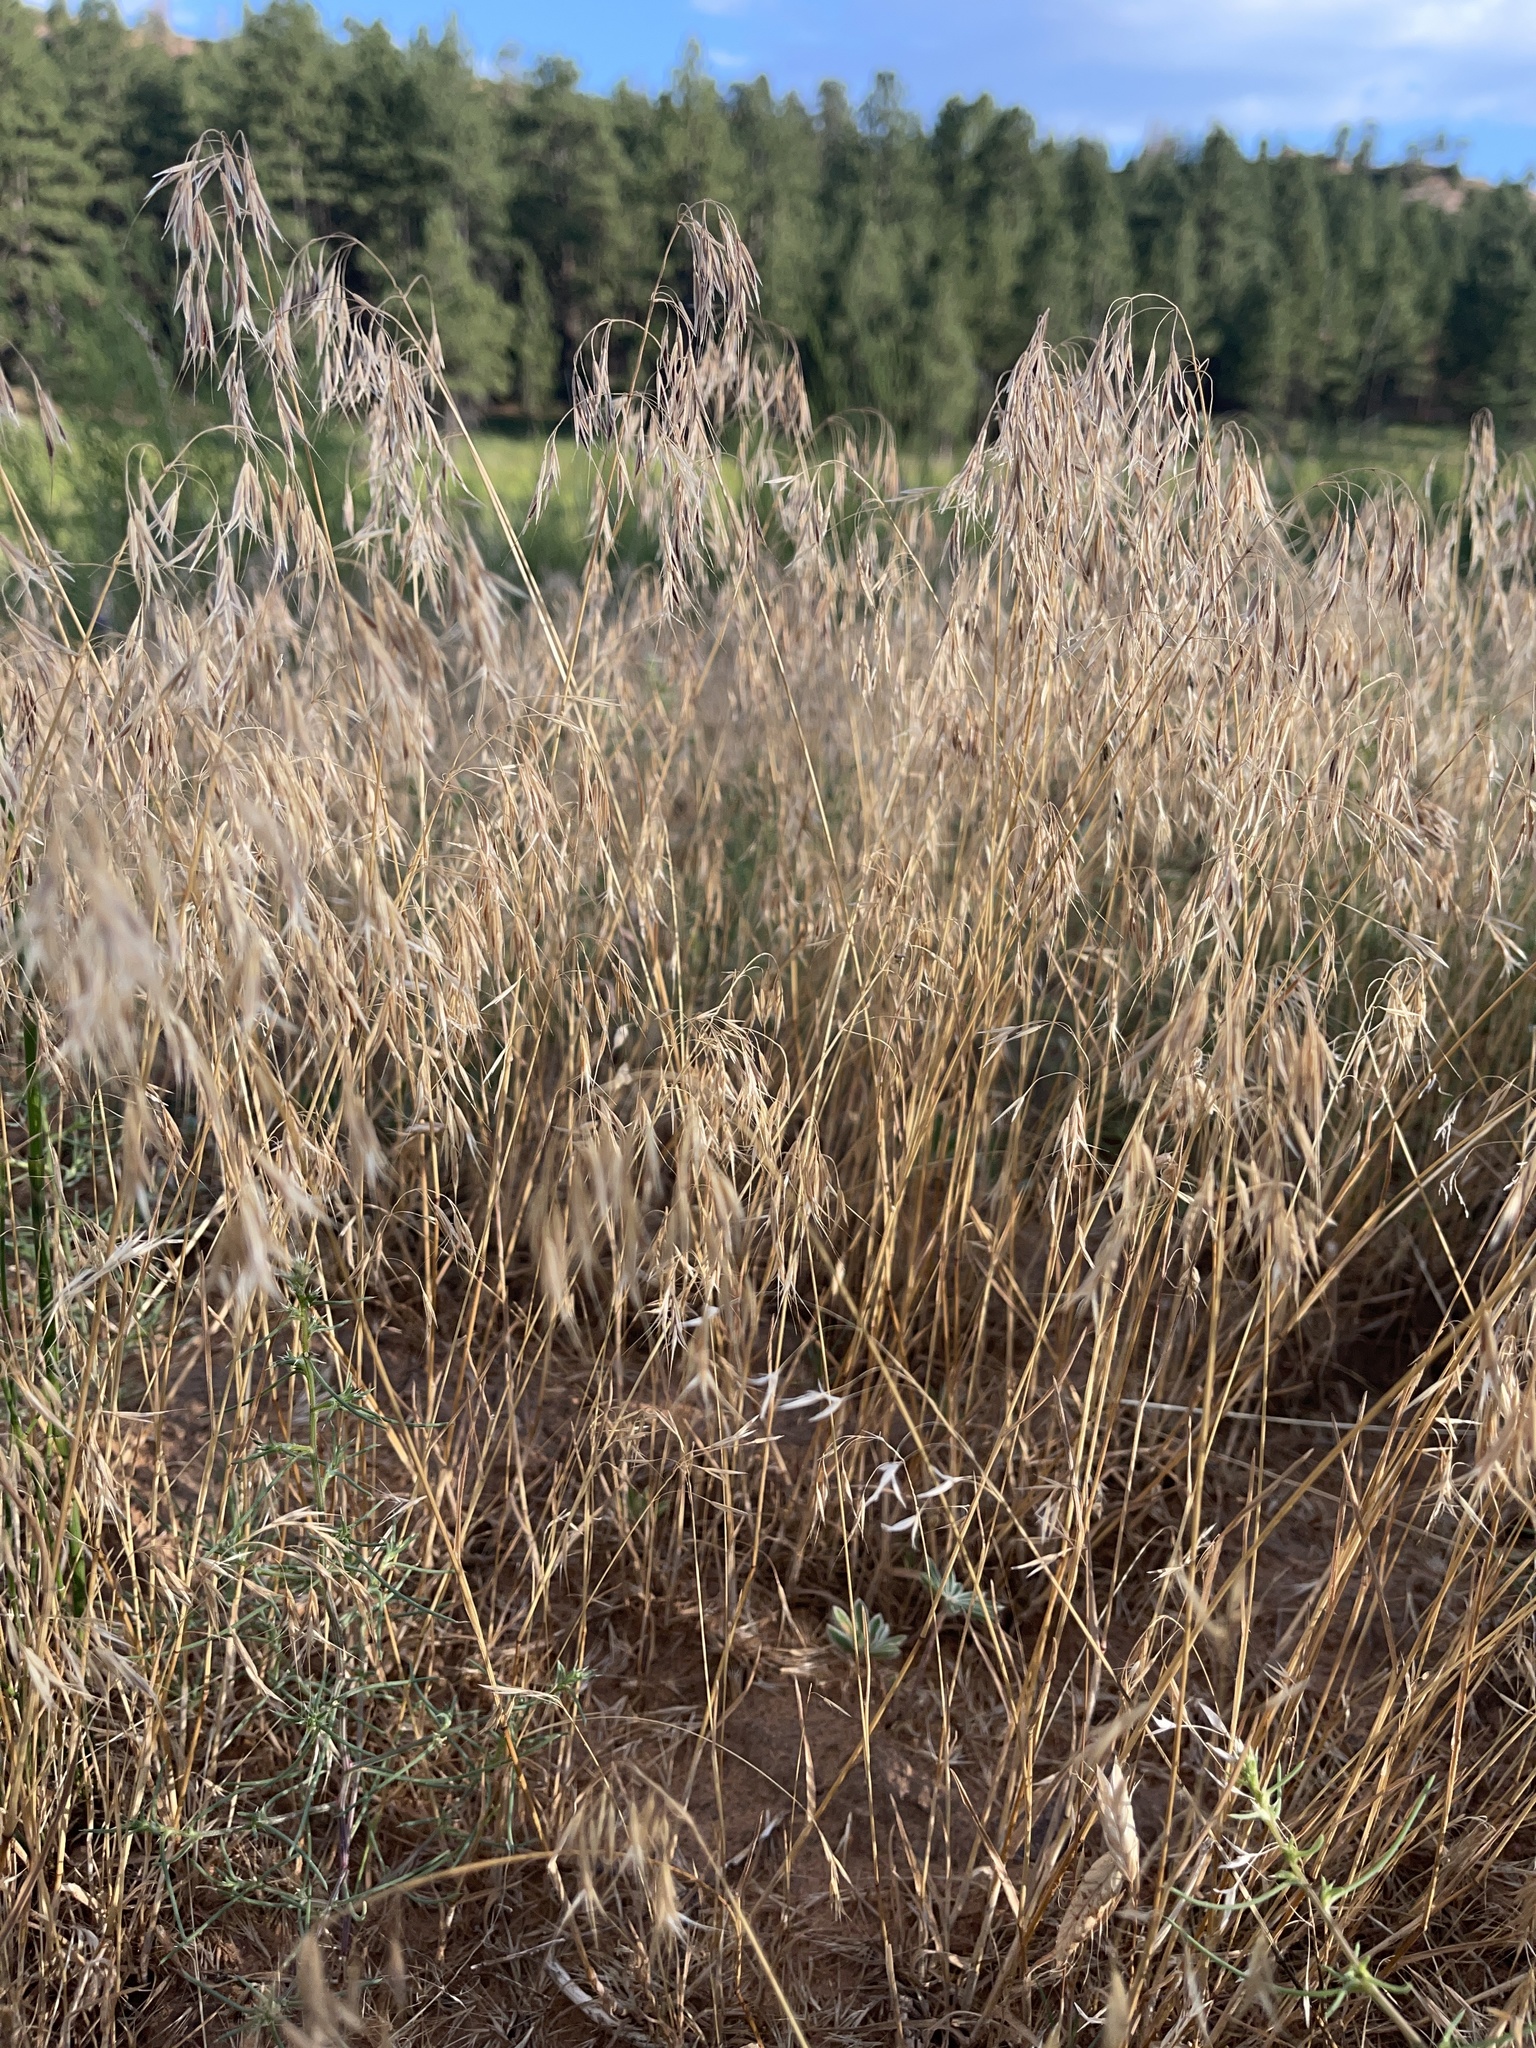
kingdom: Plantae
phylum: Tracheophyta
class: Liliopsida
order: Poales
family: Poaceae
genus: Bromus
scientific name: Bromus tectorum
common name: Cheatgrass
